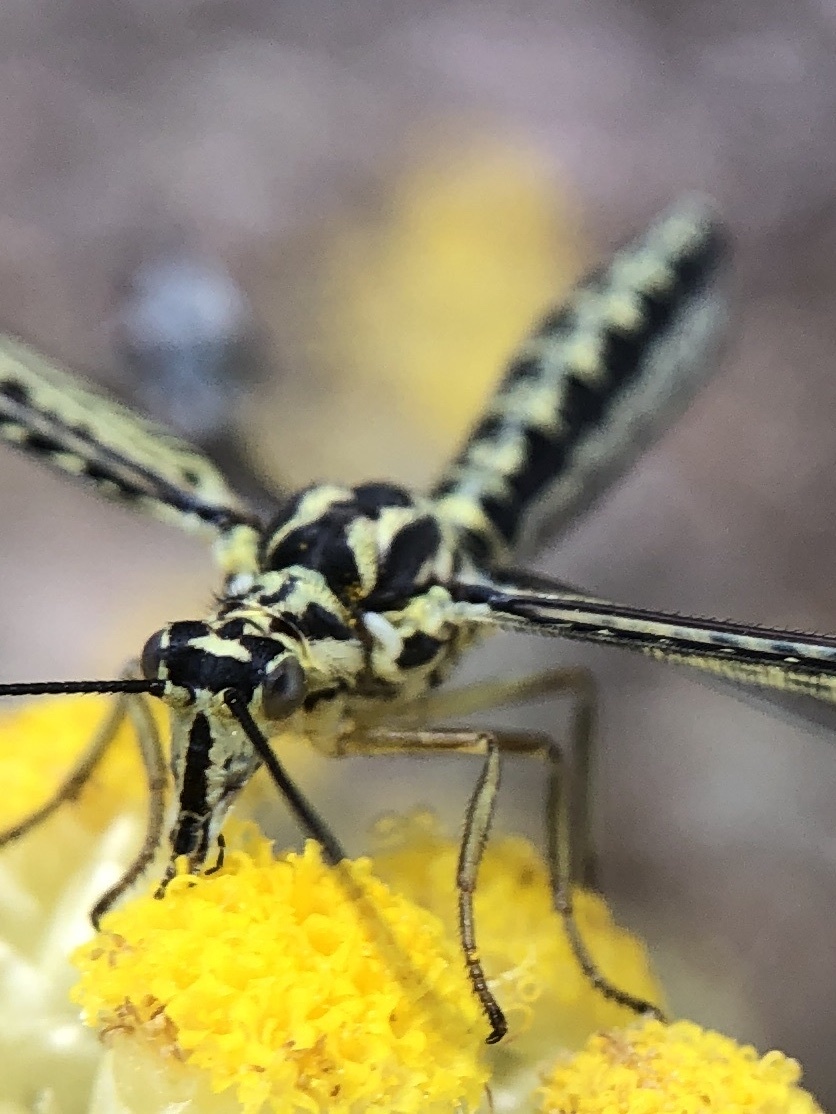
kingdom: Animalia
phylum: Arthropoda
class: Insecta
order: Neuroptera
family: Nemopteridae
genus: Nemoptera
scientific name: Nemoptera bipennis
